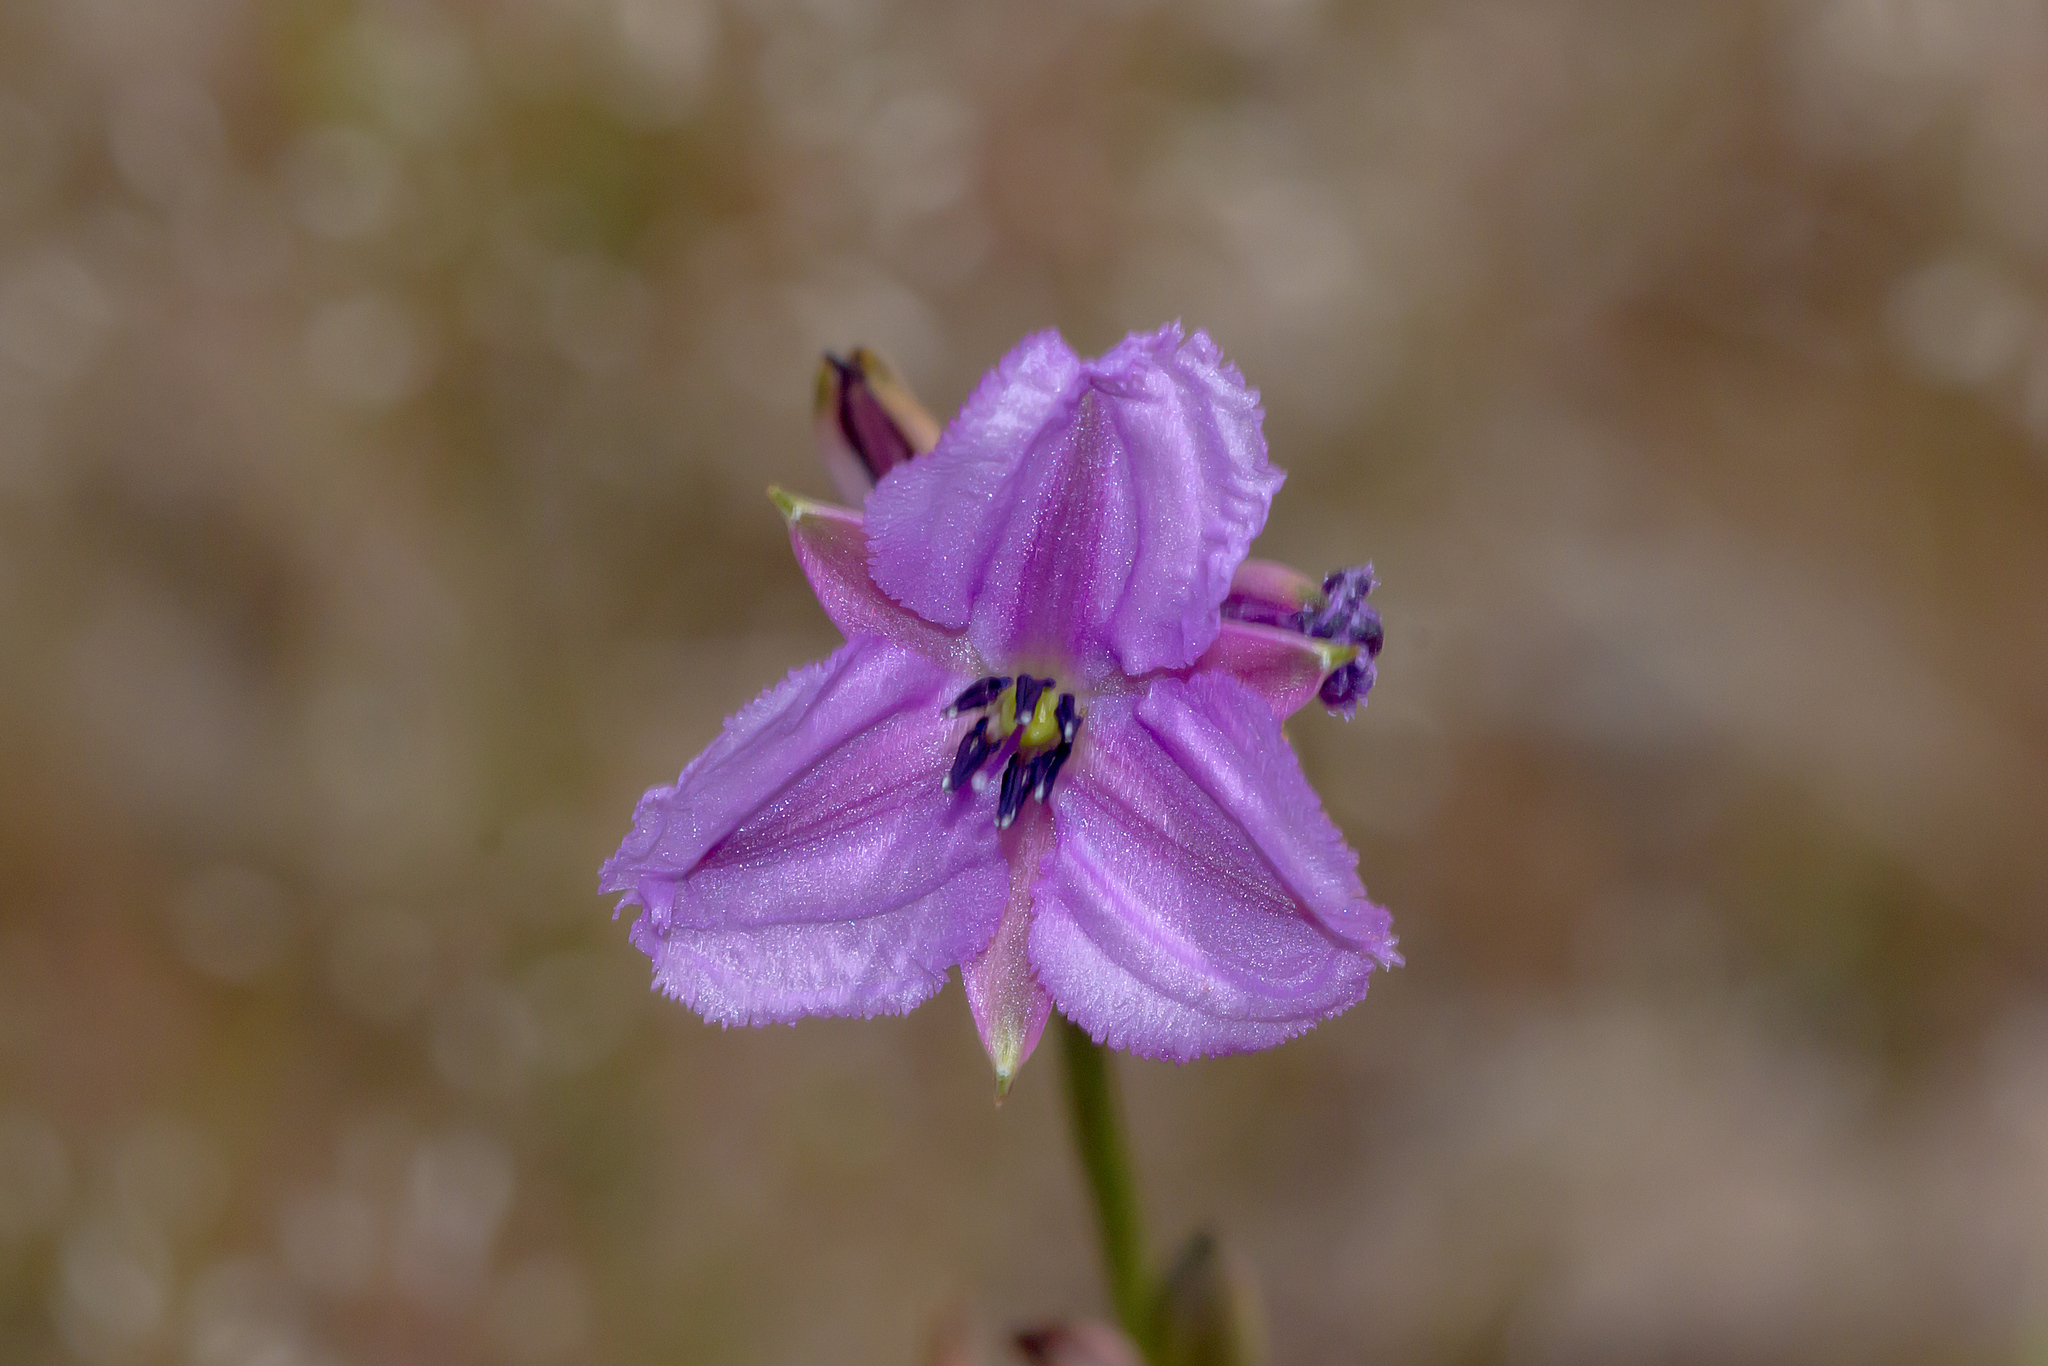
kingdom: Plantae
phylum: Tracheophyta
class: Liliopsida
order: Asparagales
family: Asparagaceae
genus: Arthropodium
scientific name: Arthropodium strictum
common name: Chocolate-lily
